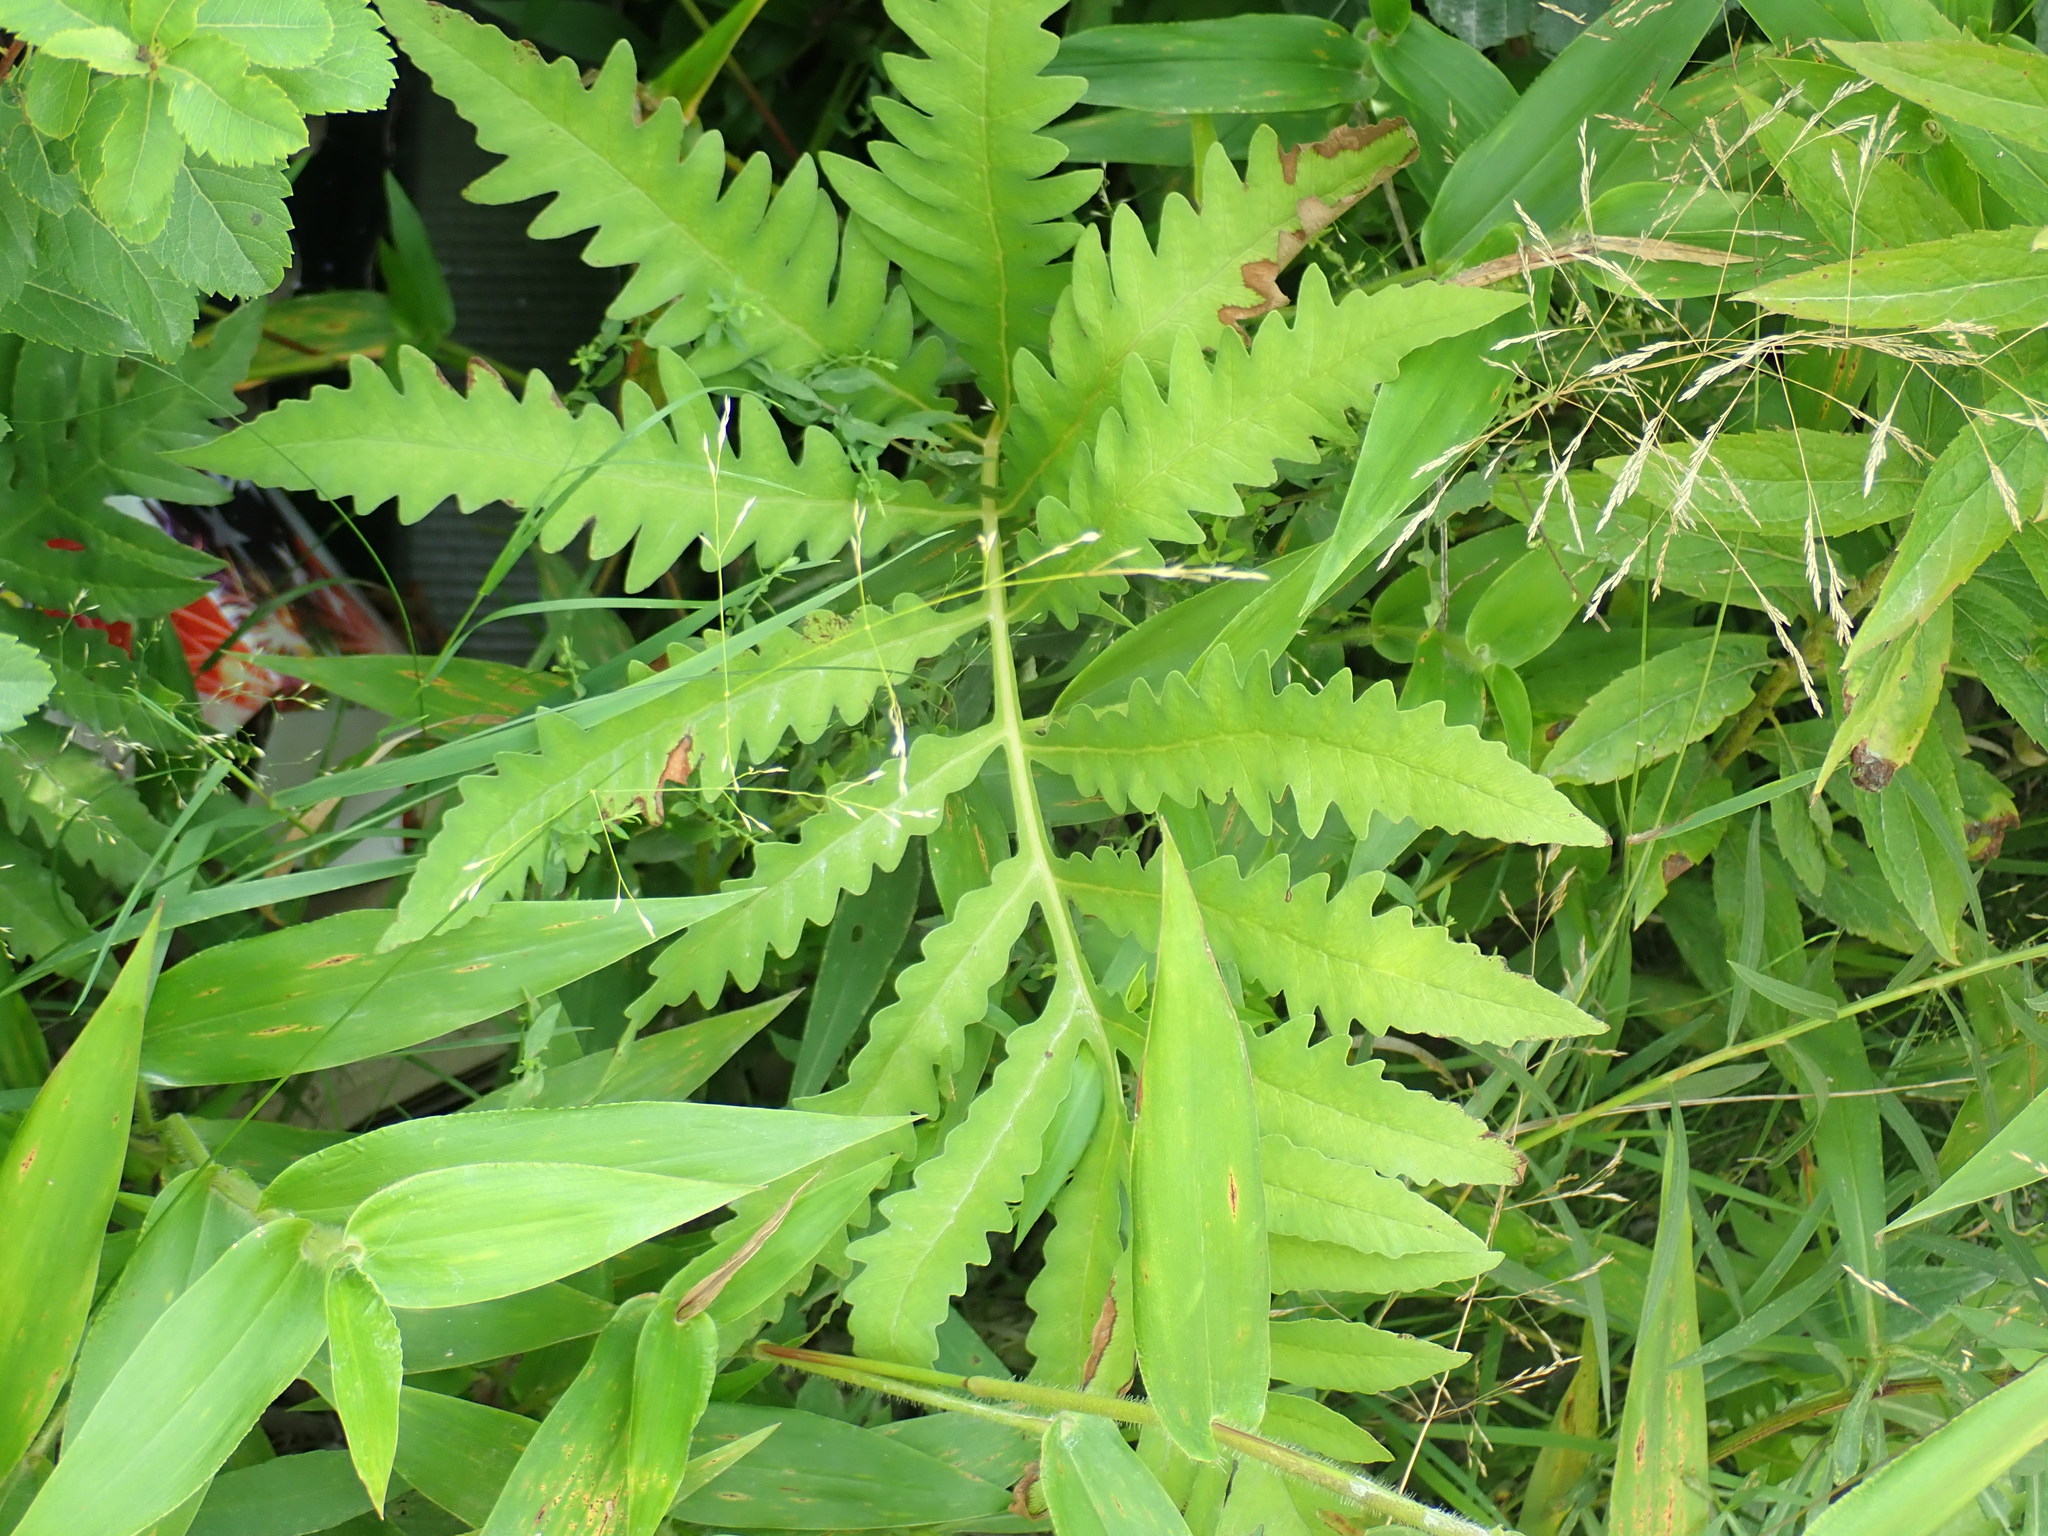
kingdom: Plantae
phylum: Tracheophyta
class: Polypodiopsida
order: Polypodiales
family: Onocleaceae
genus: Onoclea
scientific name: Onoclea sensibilis
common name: Sensitive fern
